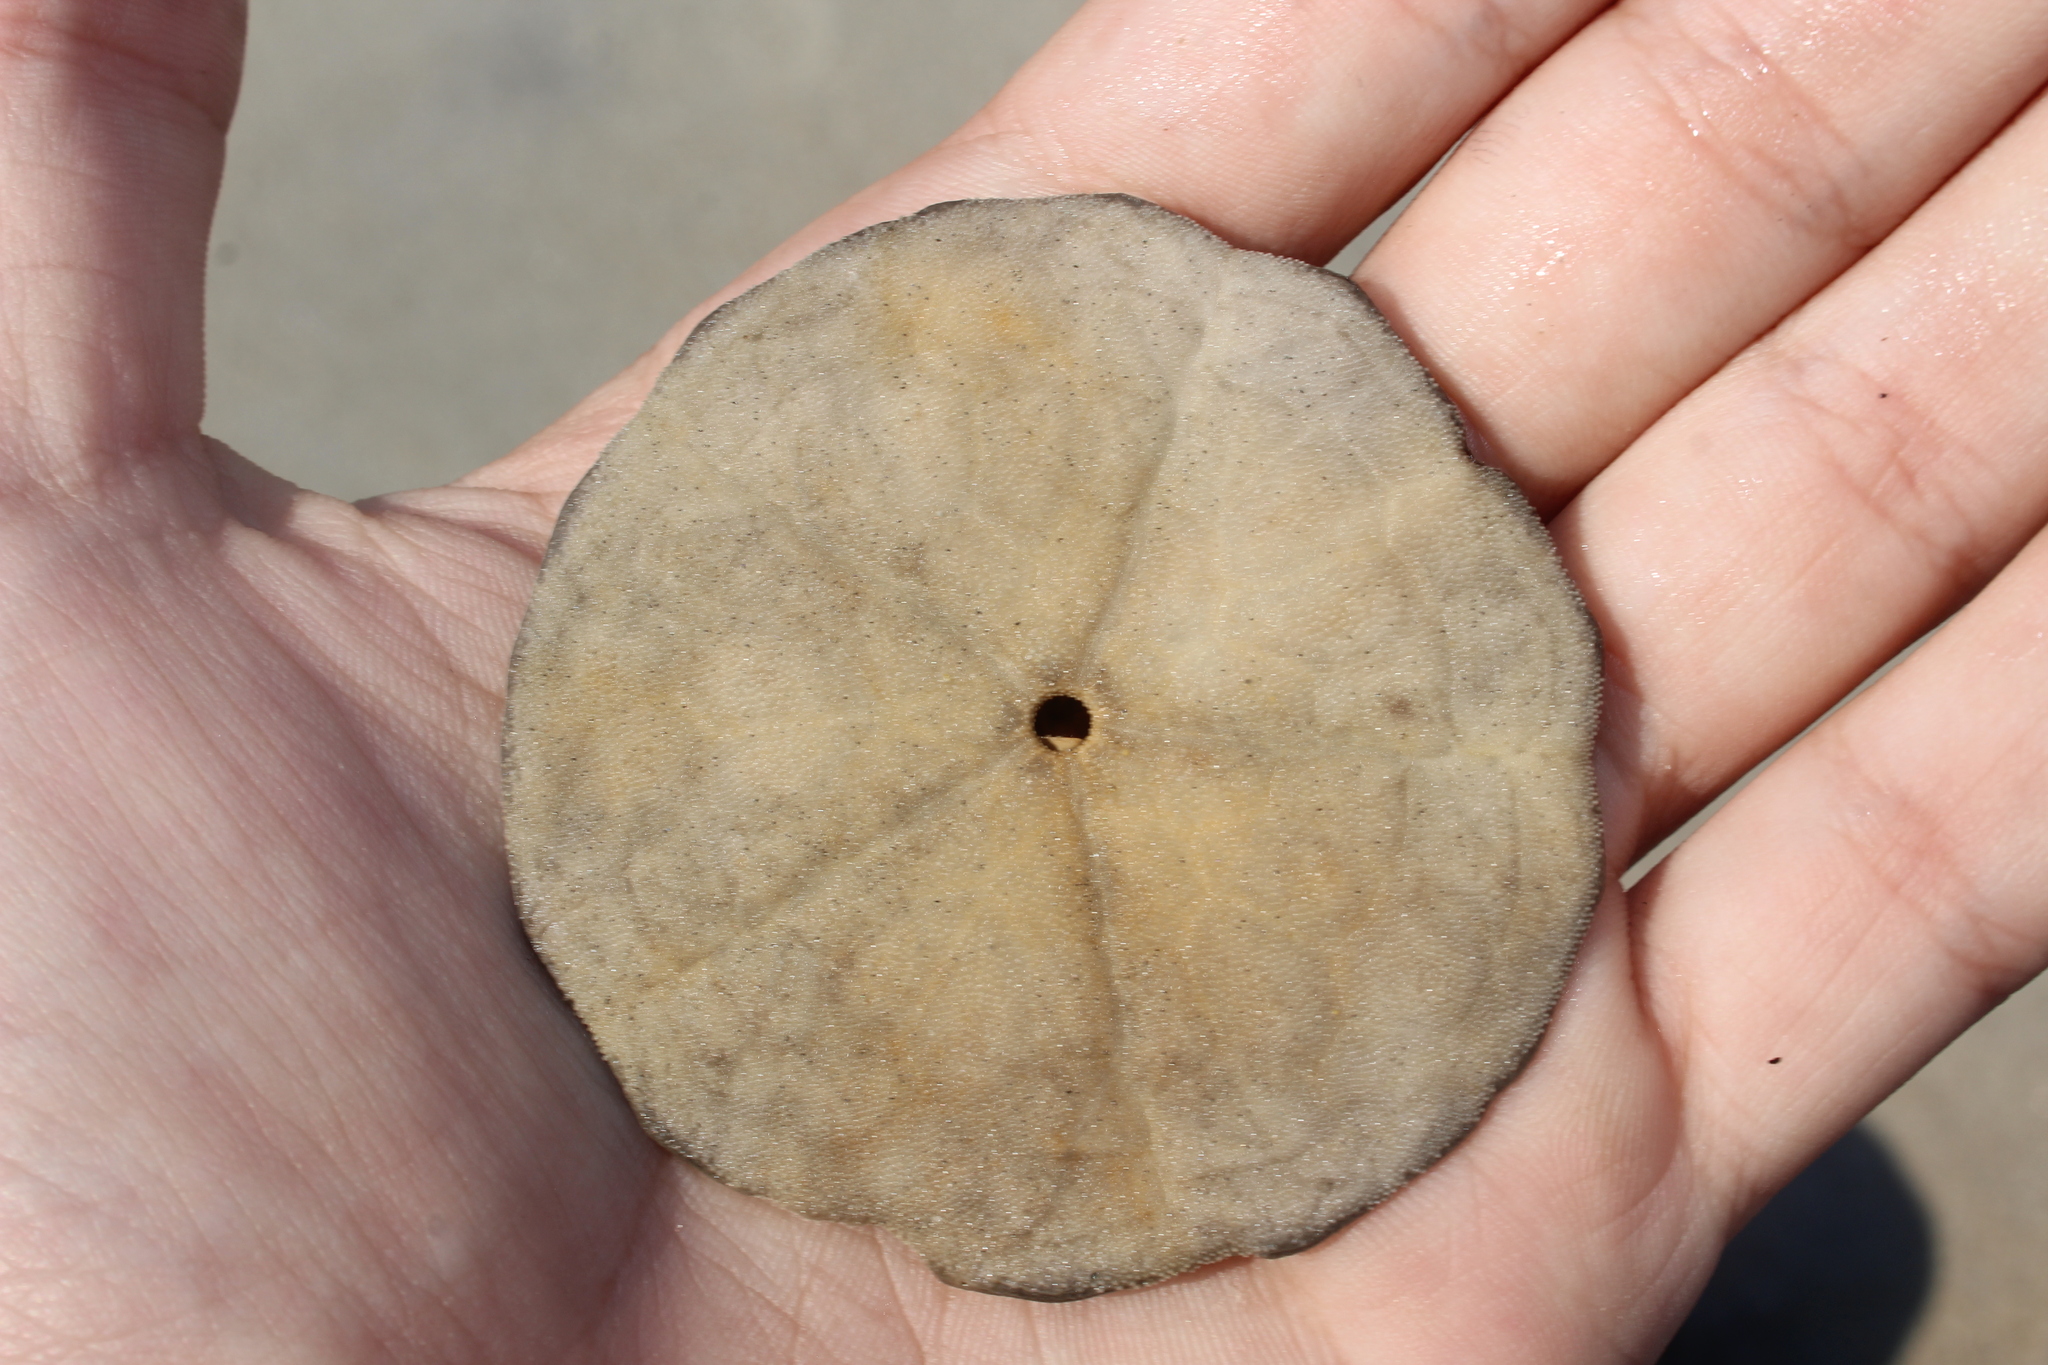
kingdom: Animalia
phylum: Echinodermata
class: Echinoidea
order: Echinolampadacea
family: Echinarachniidae
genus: Echinarachnius
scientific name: Echinarachnius parma
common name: Common sand dollar
